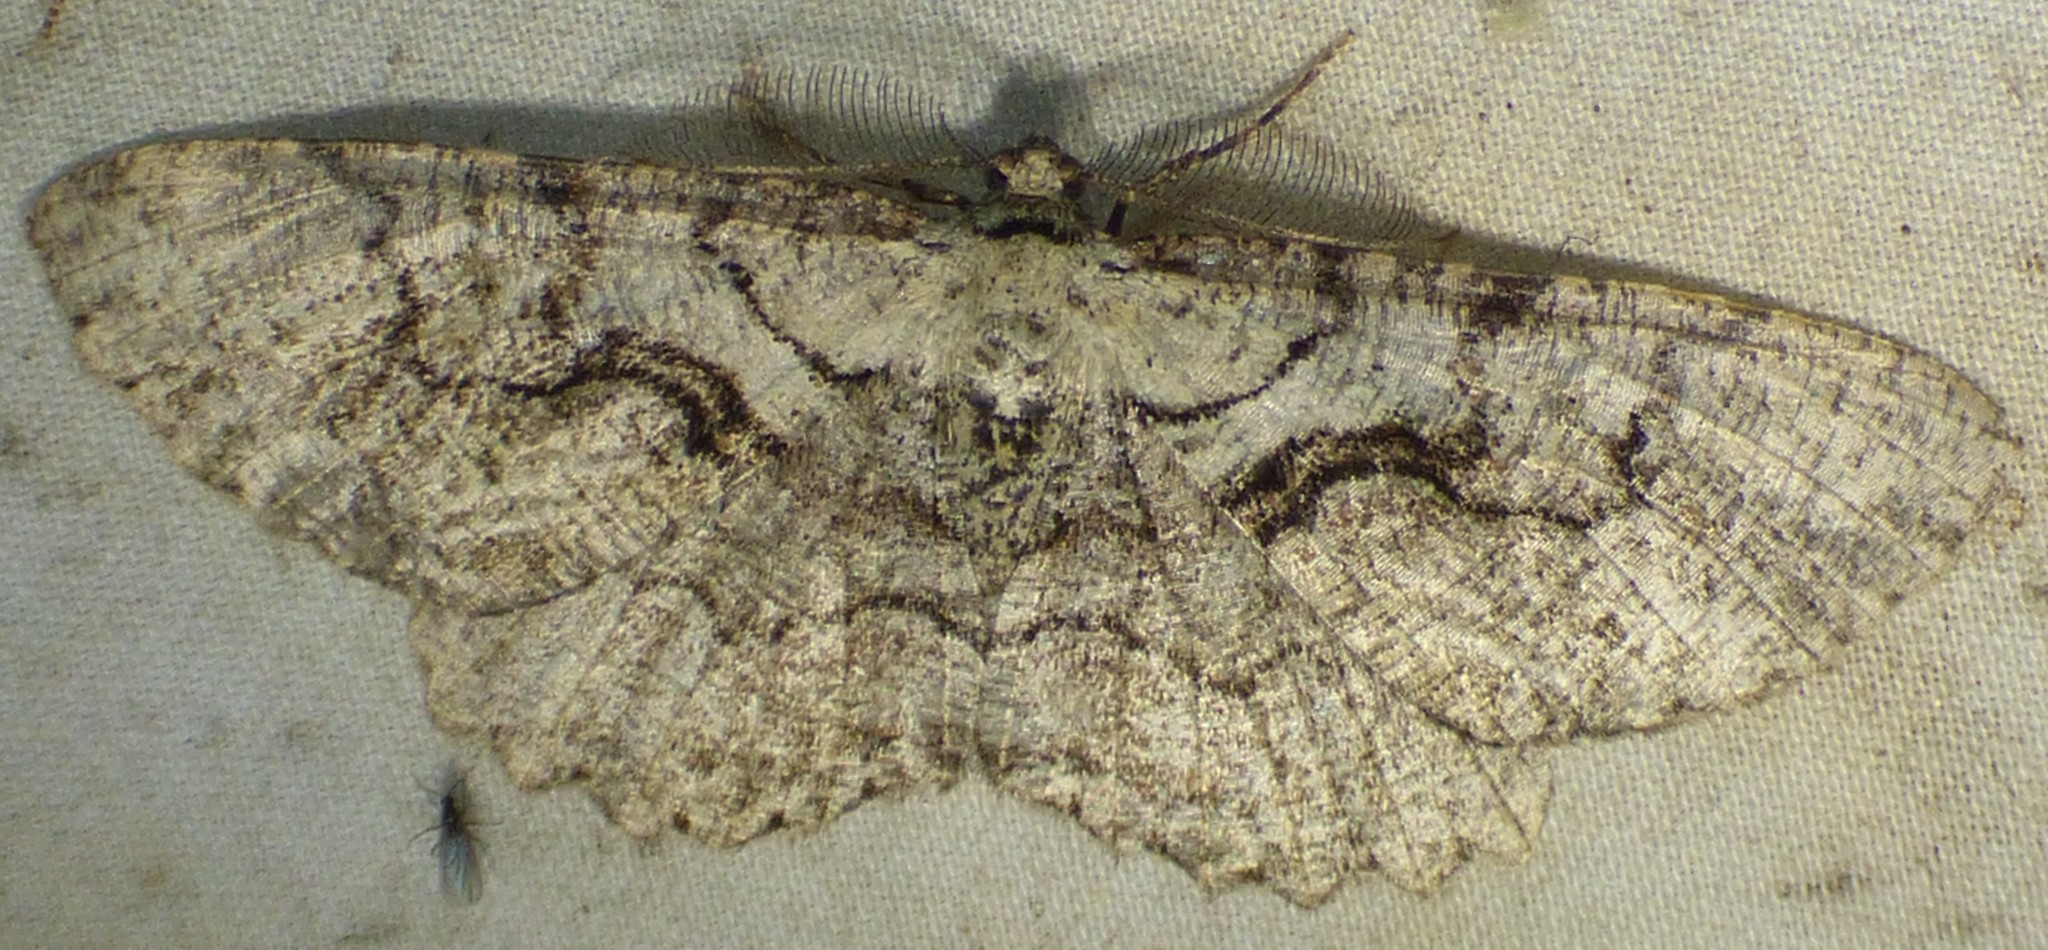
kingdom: Animalia
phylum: Arthropoda
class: Insecta
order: Lepidoptera
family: Geometridae
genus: Cymatophora
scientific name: Cymatophora approximaria
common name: Giant gray moth
